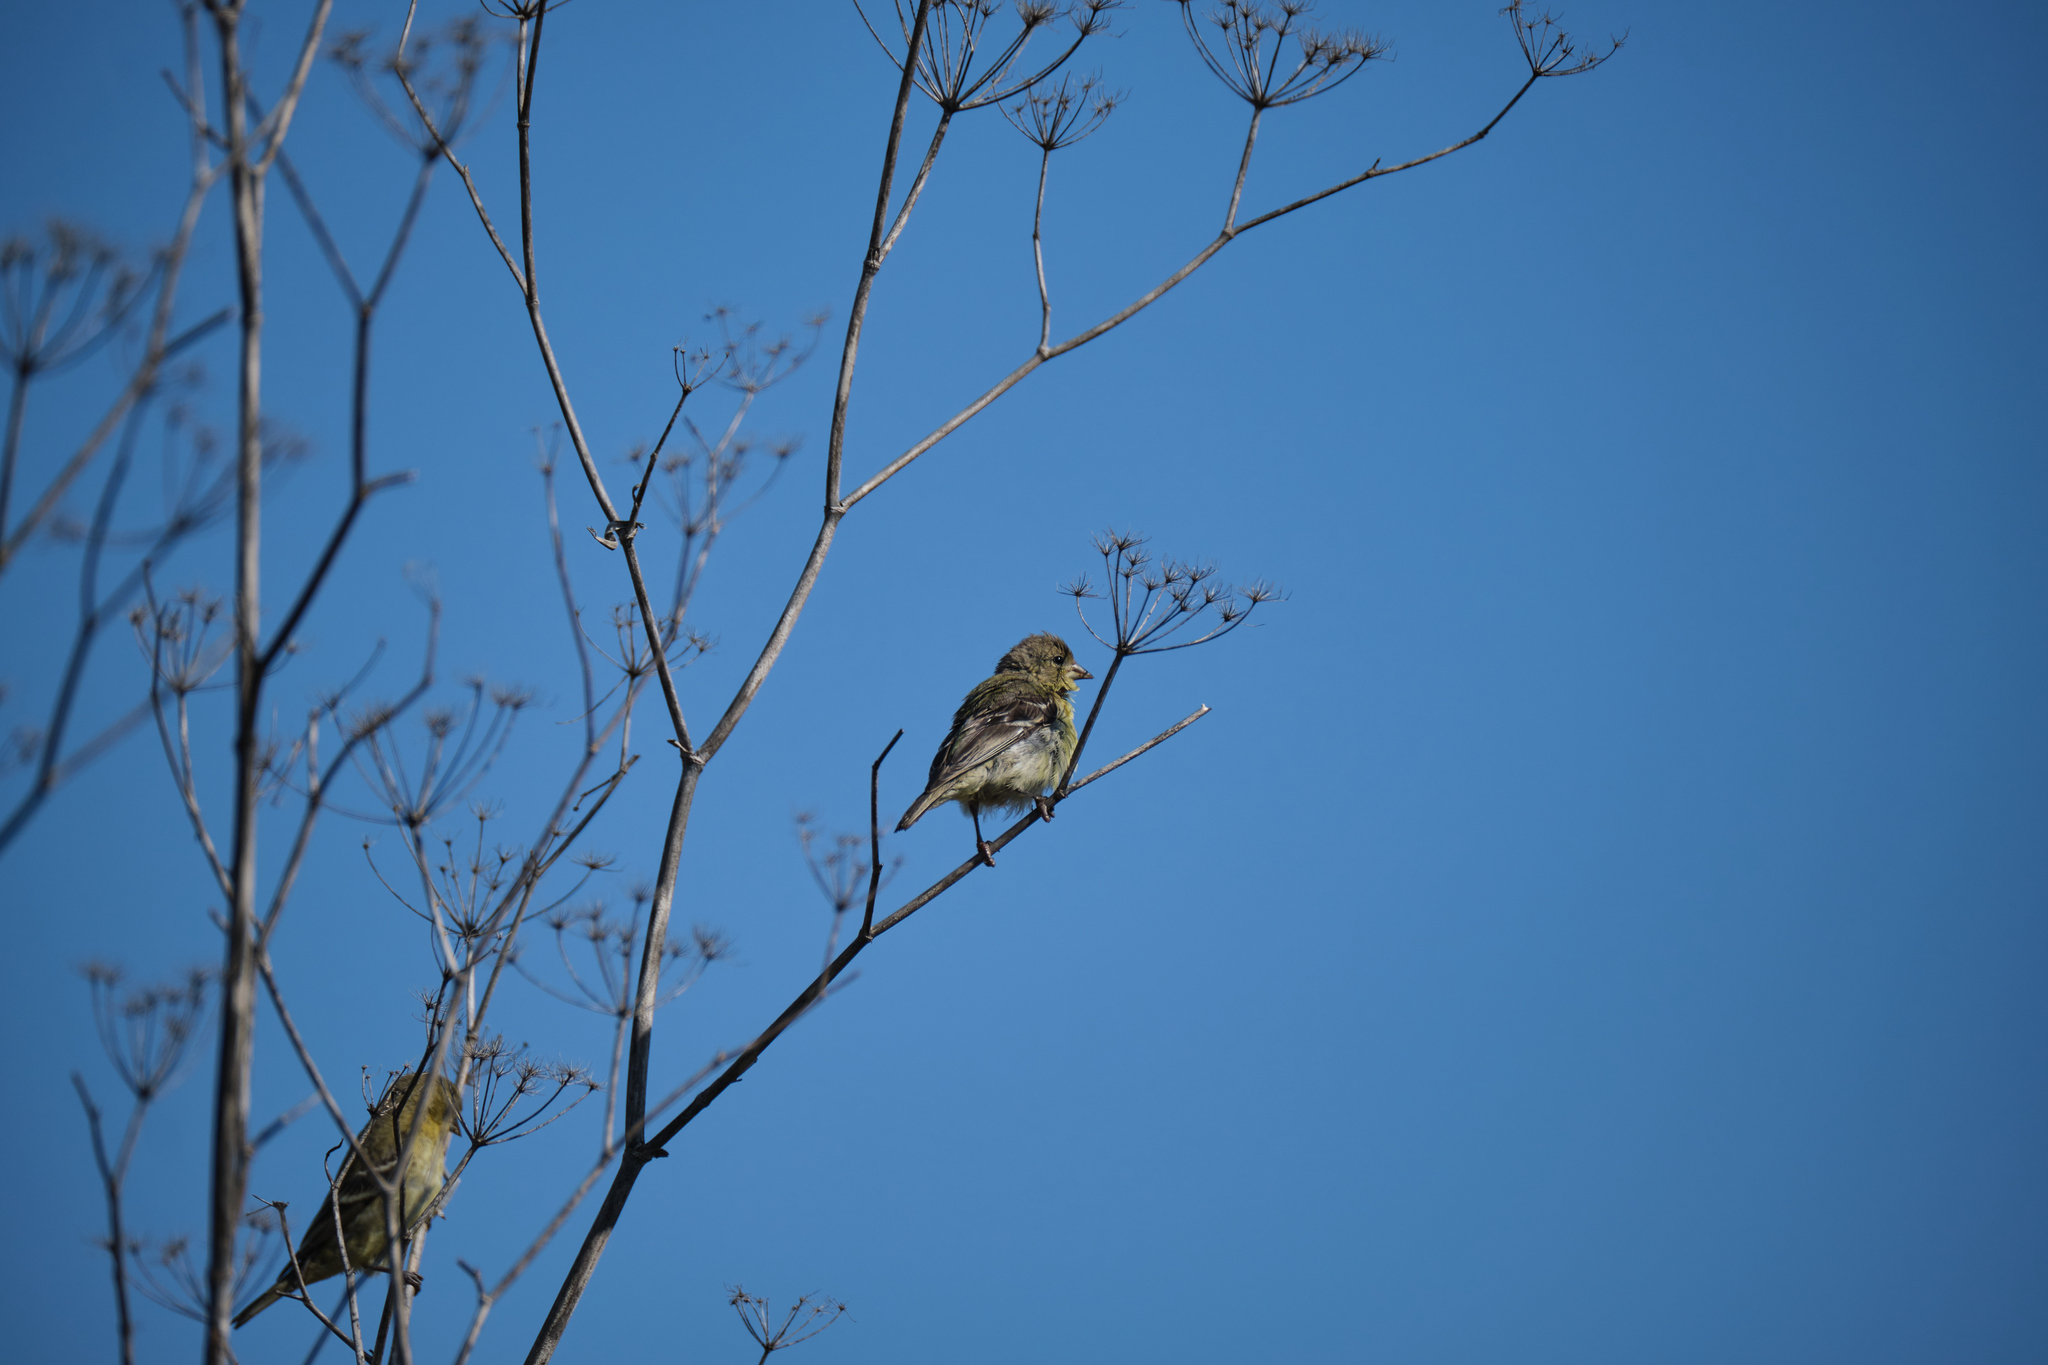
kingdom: Animalia
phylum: Chordata
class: Aves
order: Passeriformes
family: Fringillidae
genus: Spinus
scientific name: Spinus psaltria
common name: Lesser goldfinch
